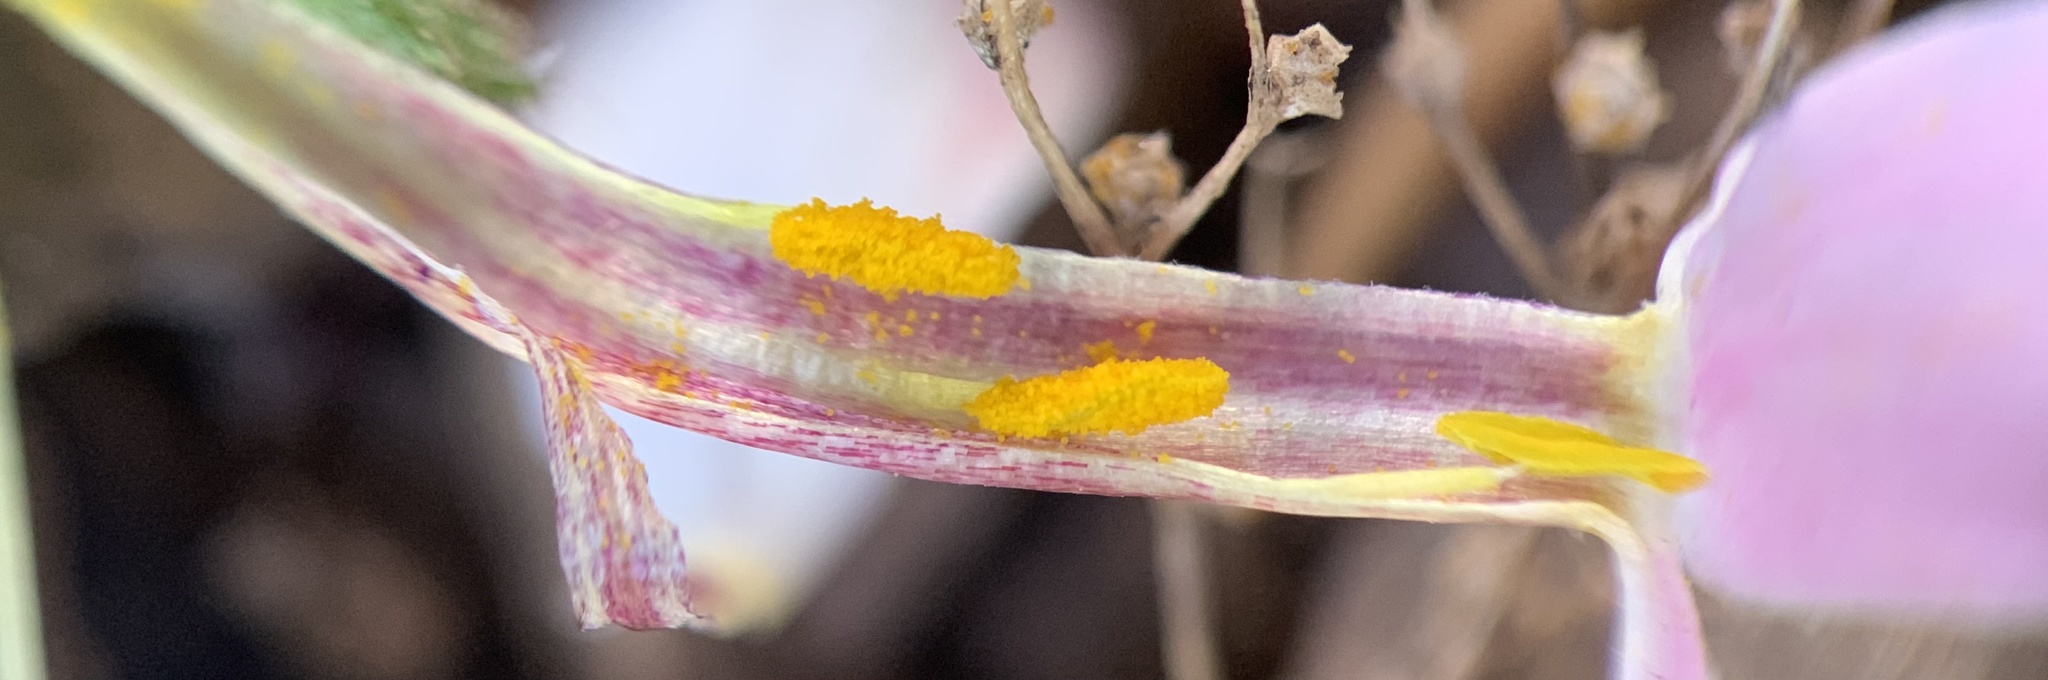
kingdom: Plantae
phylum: Tracheophyta
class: Magnoliopsida
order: Ericales
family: Polemoniaceae
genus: Phlox
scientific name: Phlox amabilis
